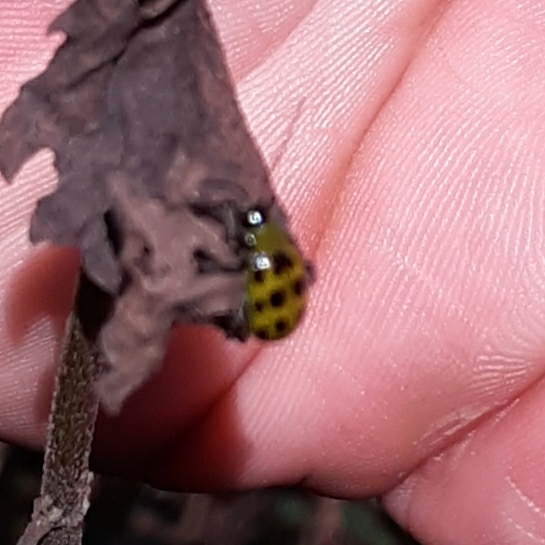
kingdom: Animalia
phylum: Arthropoda
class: Insecta
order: Coleoptera
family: Chrysomelidae
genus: Diabrotica
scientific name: Diabrotica undecimpunctata
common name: Spotted cucumber beetle
